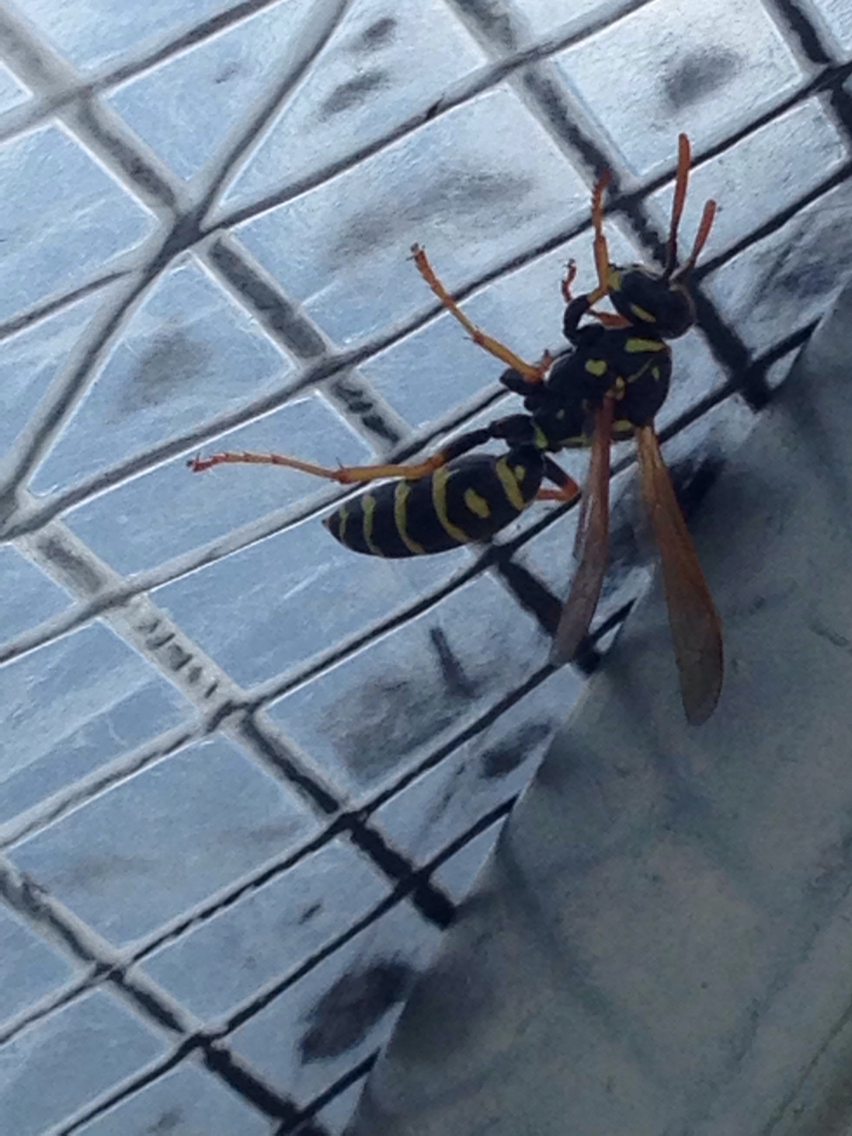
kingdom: Animalia
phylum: Arthropoda
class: Insecta
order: Hymenoptera
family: Eumenidae
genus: Polistes
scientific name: Polistes dominula
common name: Paper wasp
